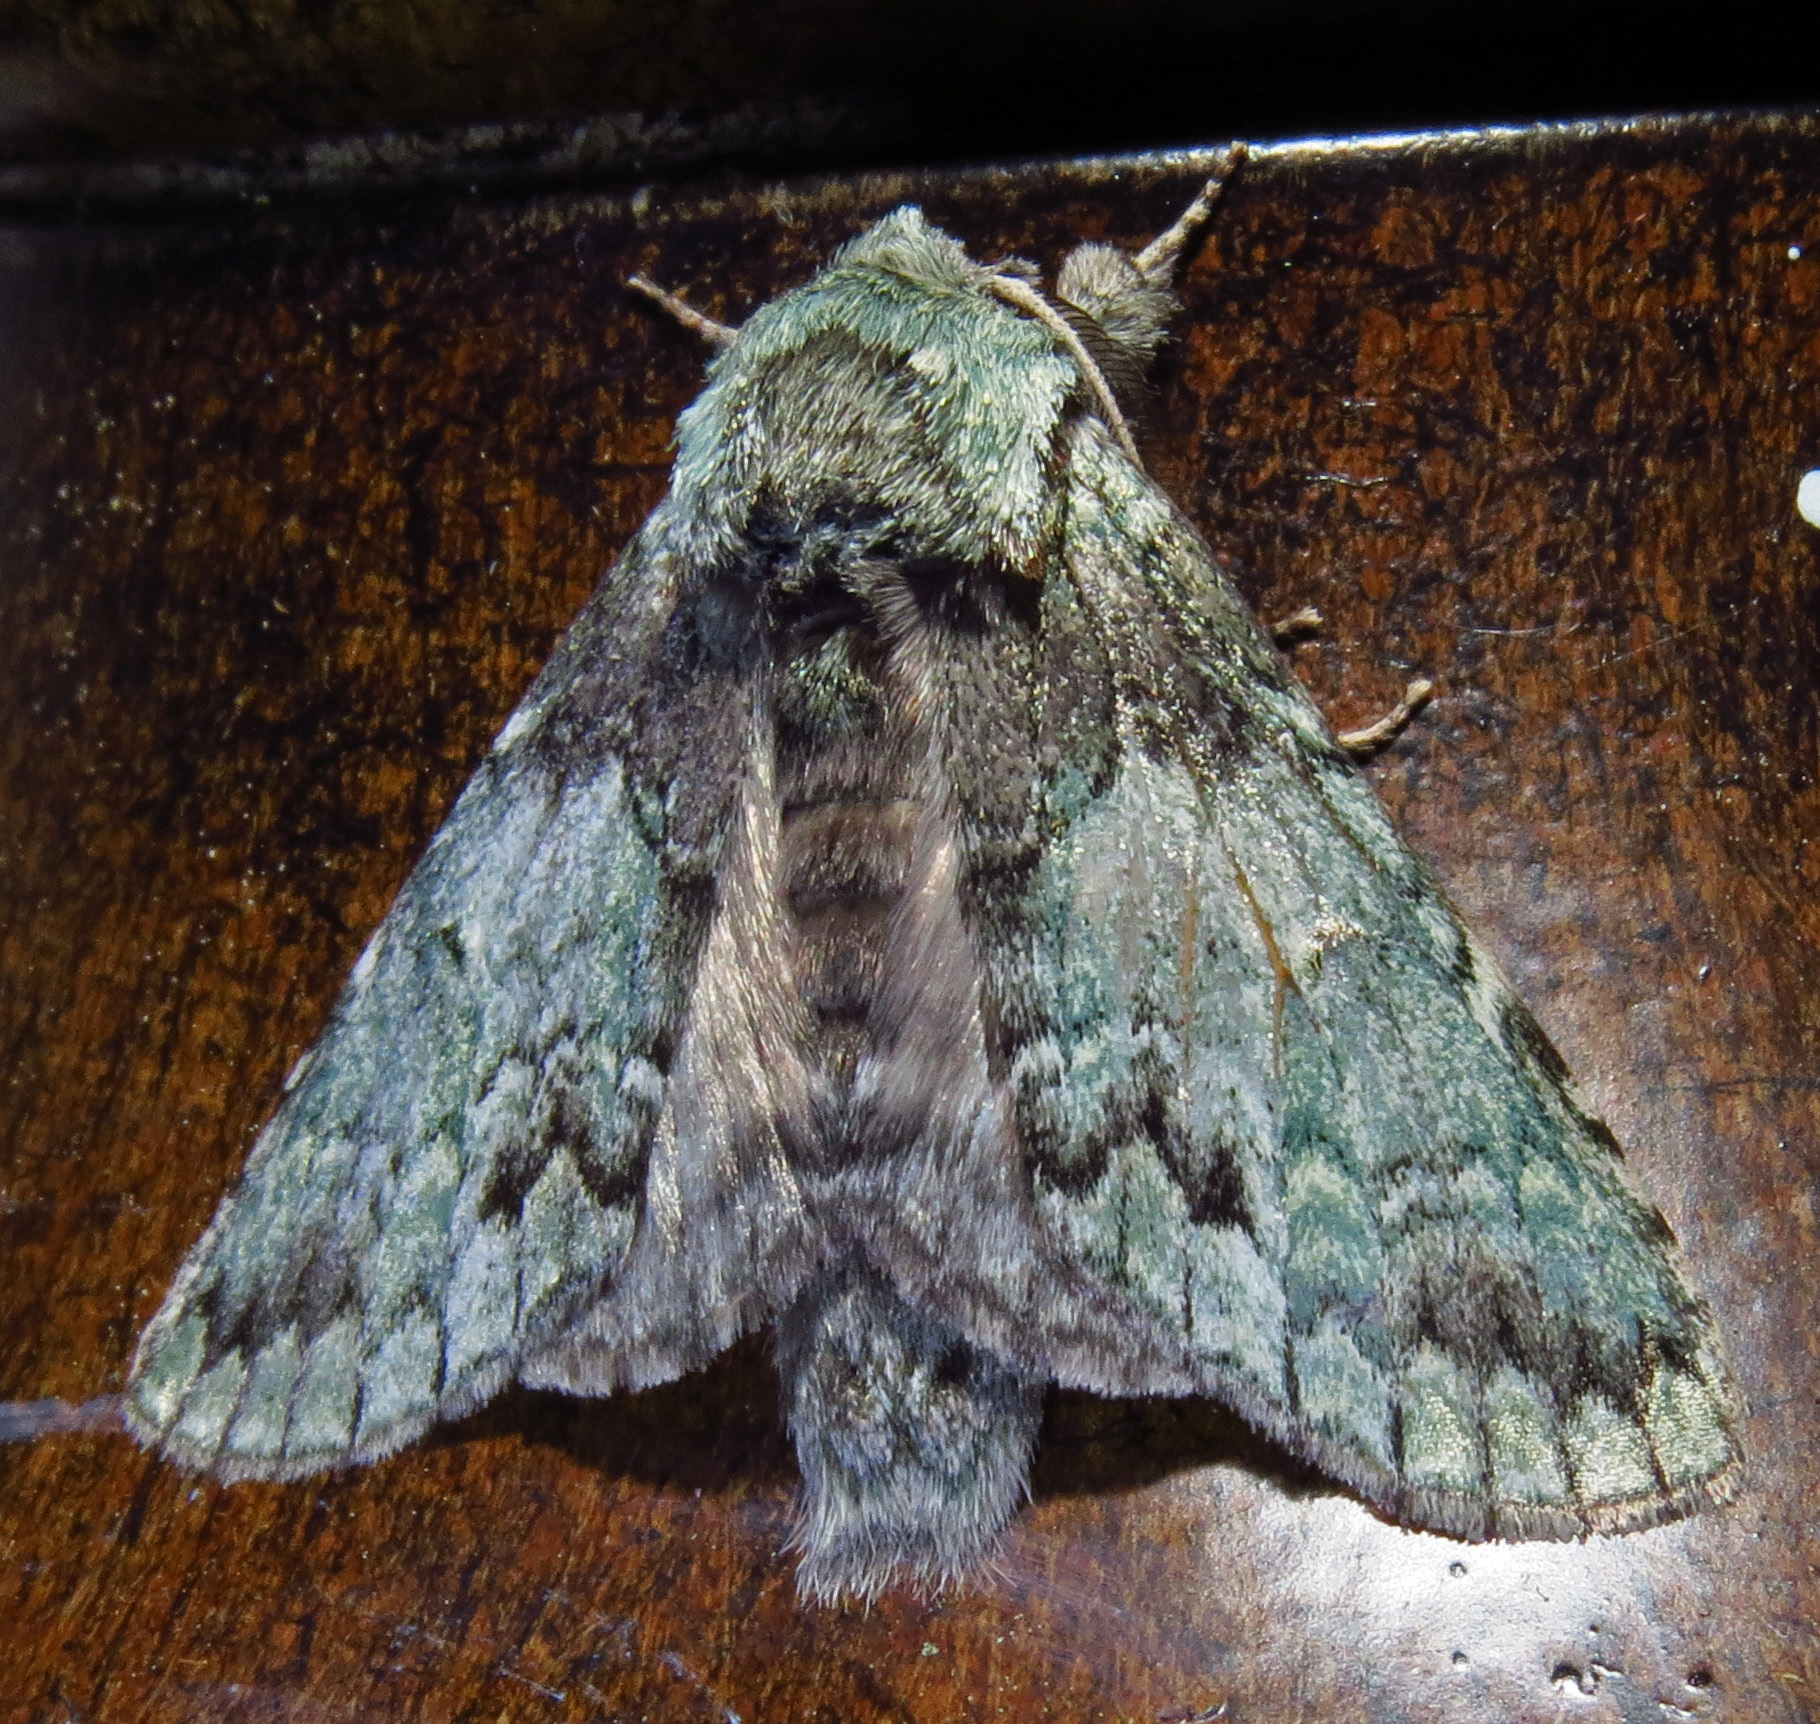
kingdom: Animalia
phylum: Arthropoda
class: Insecta
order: Lepidoptera
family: Notodontidae
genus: Macrurocampa
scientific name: Macrurocampa marthesia
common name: Mottled prominent
